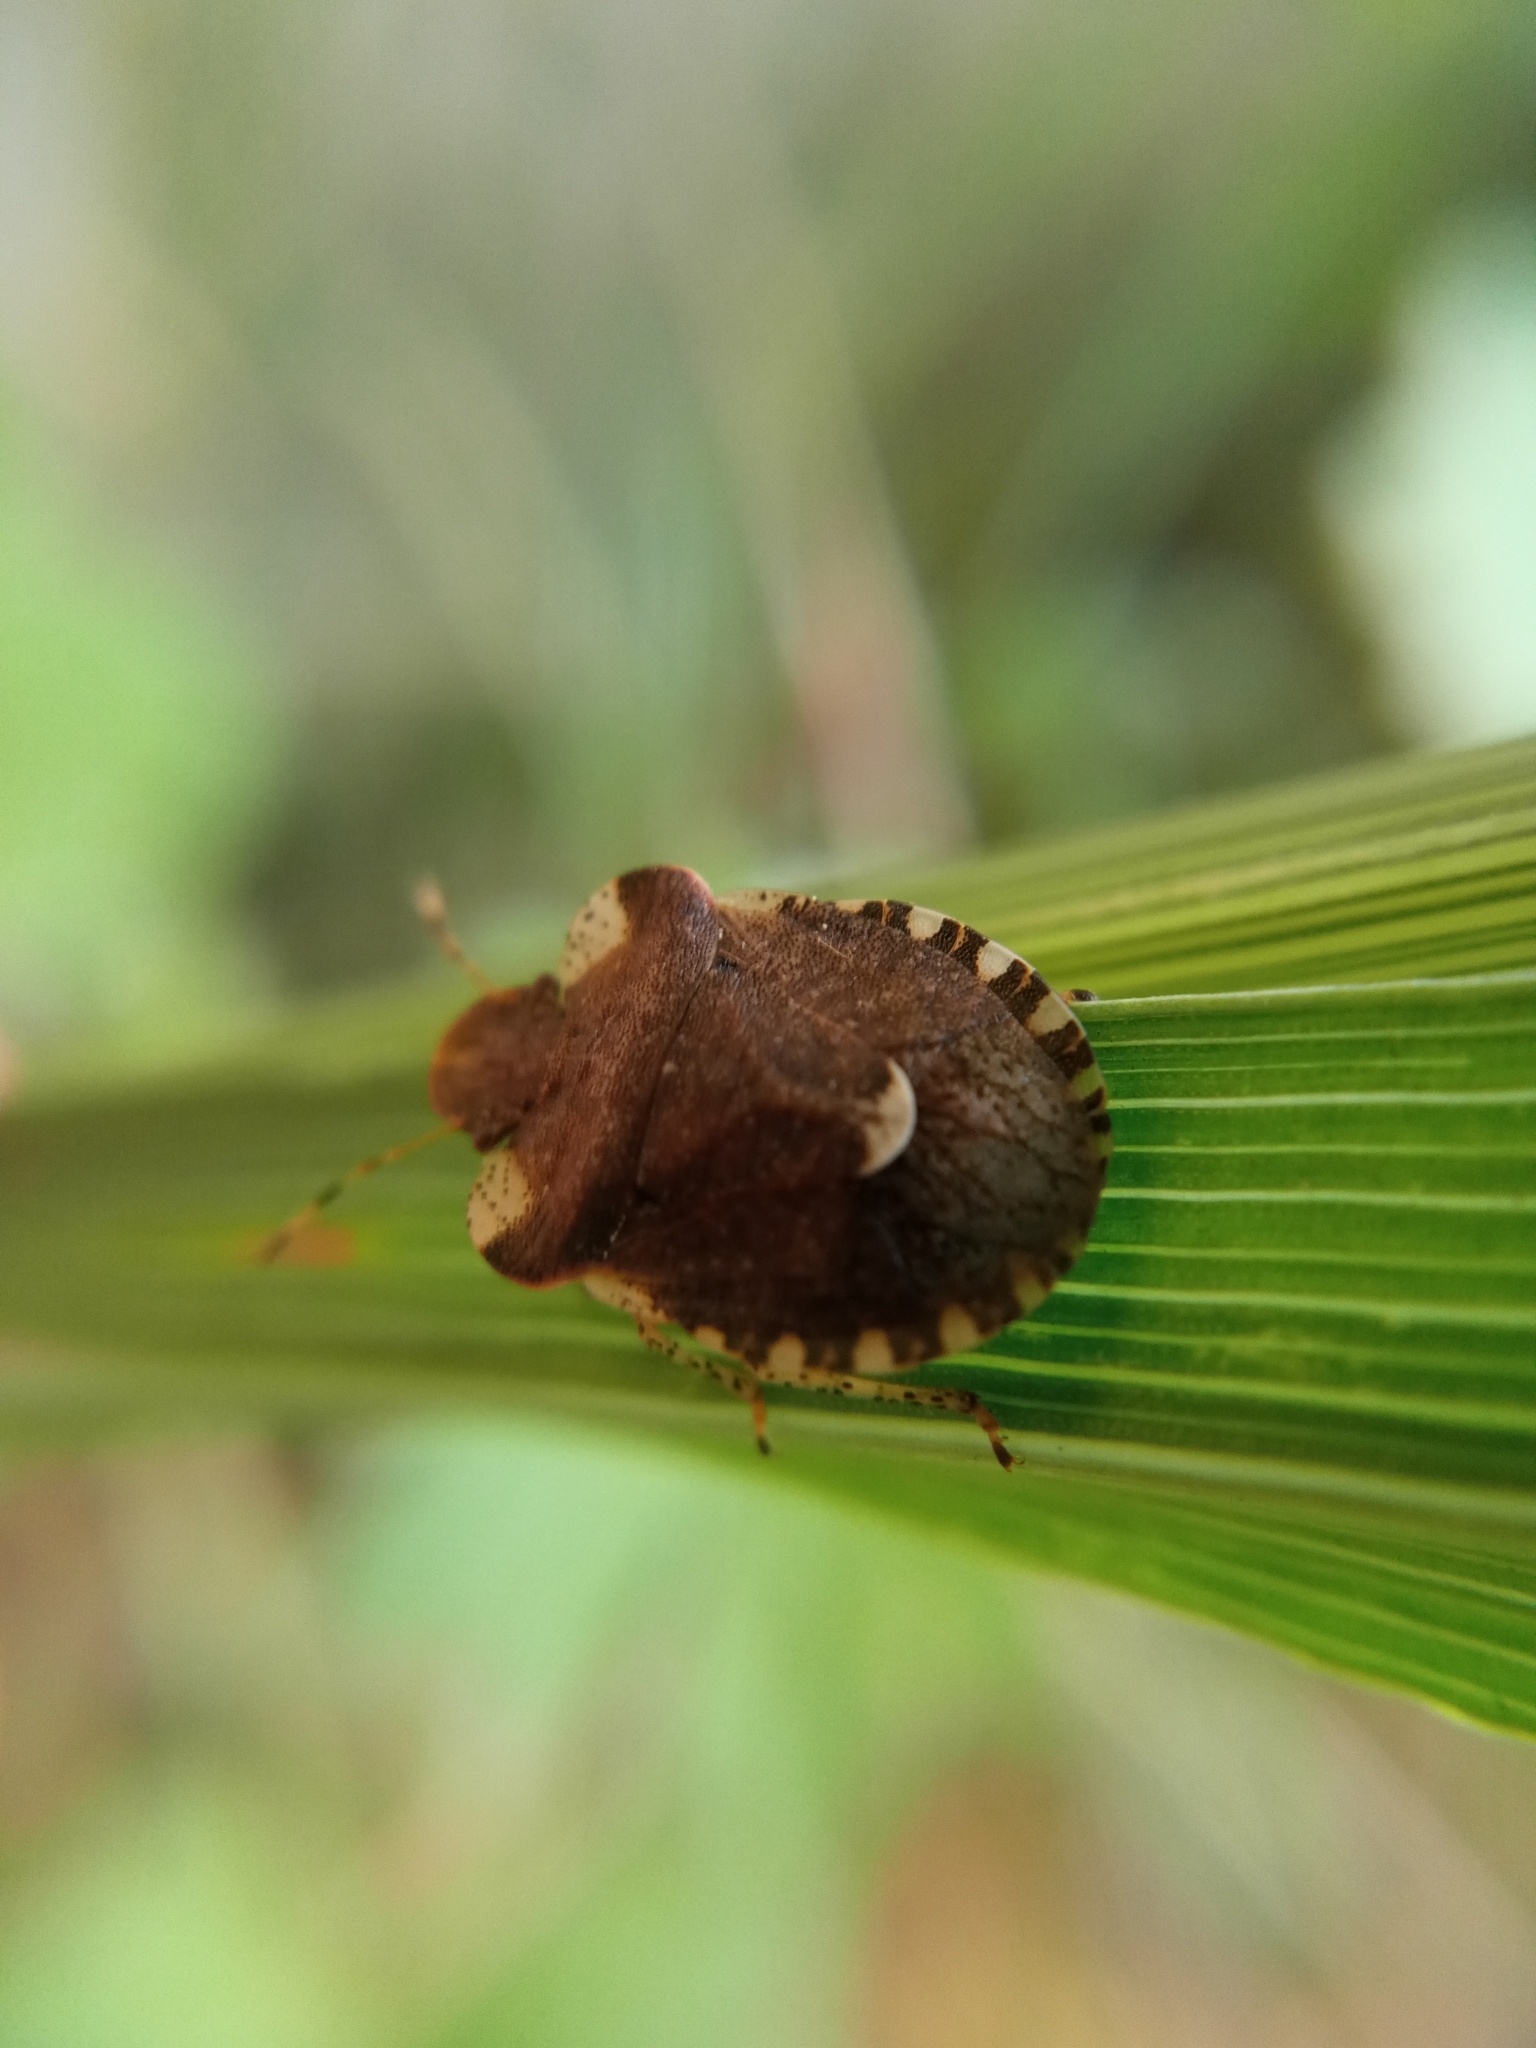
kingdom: Animalia
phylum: Arthropoda
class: Insecta
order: Hemiptera
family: Pentatomidae
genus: Dyroderes
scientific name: Dyroderes umbraculatus
